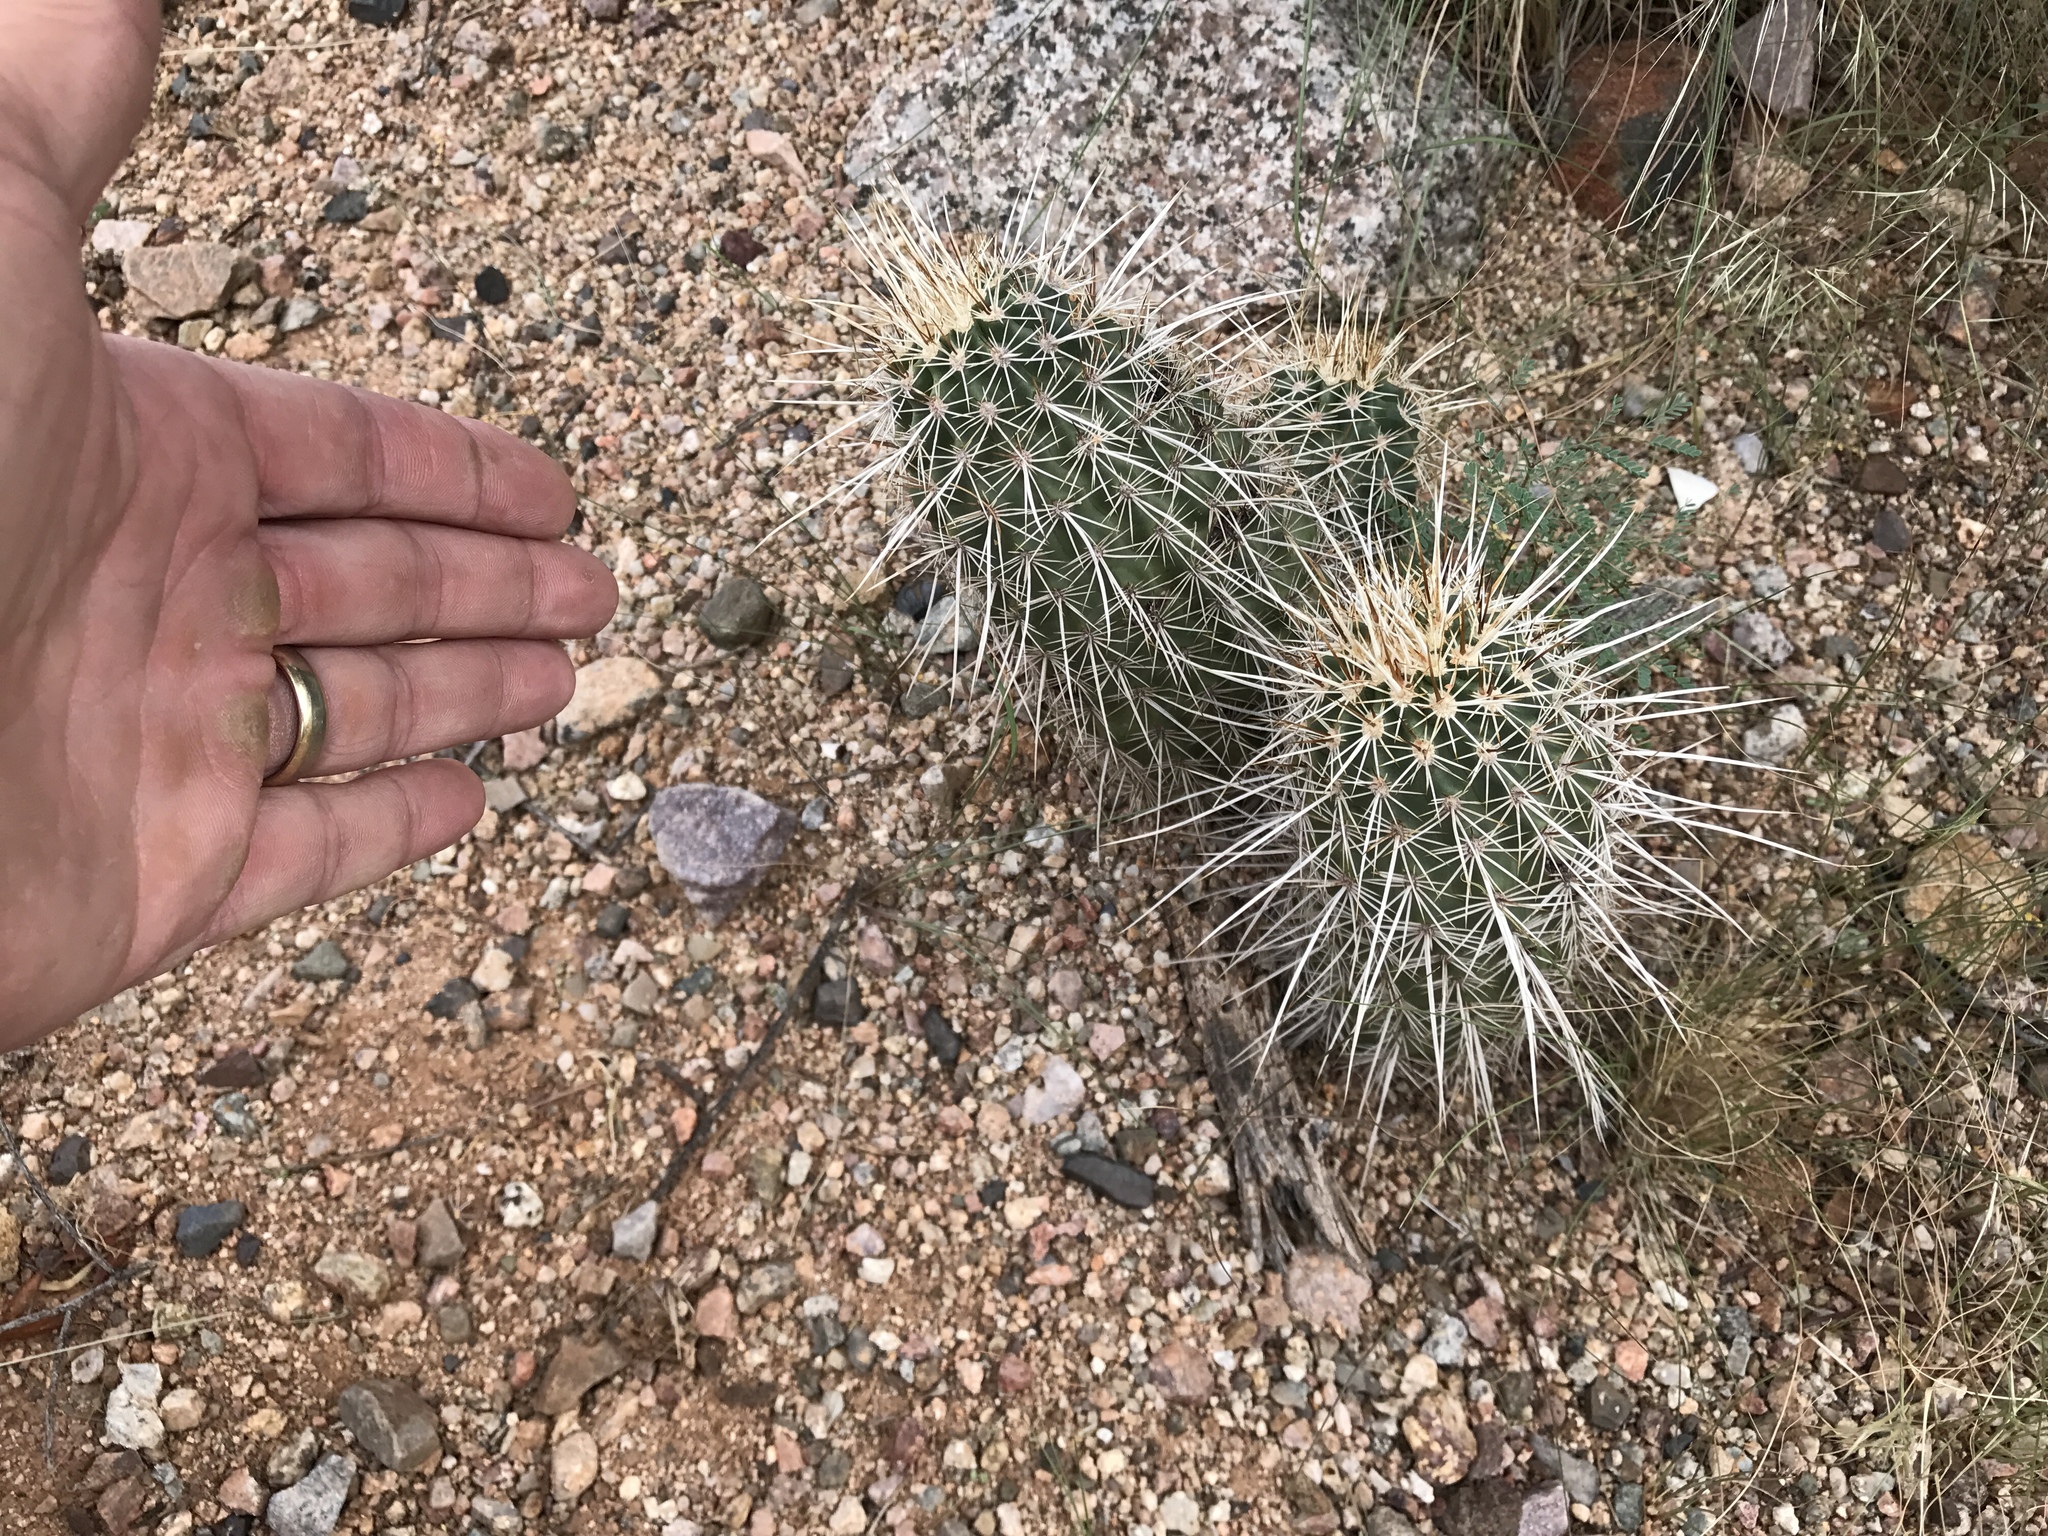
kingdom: Plantae
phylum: Tracheophyta
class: Magnoliopsida
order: Caryophyllales
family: Cactaceae
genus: Echinocereus
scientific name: Echinocereus fasciculatus
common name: Bundle hedgehog
